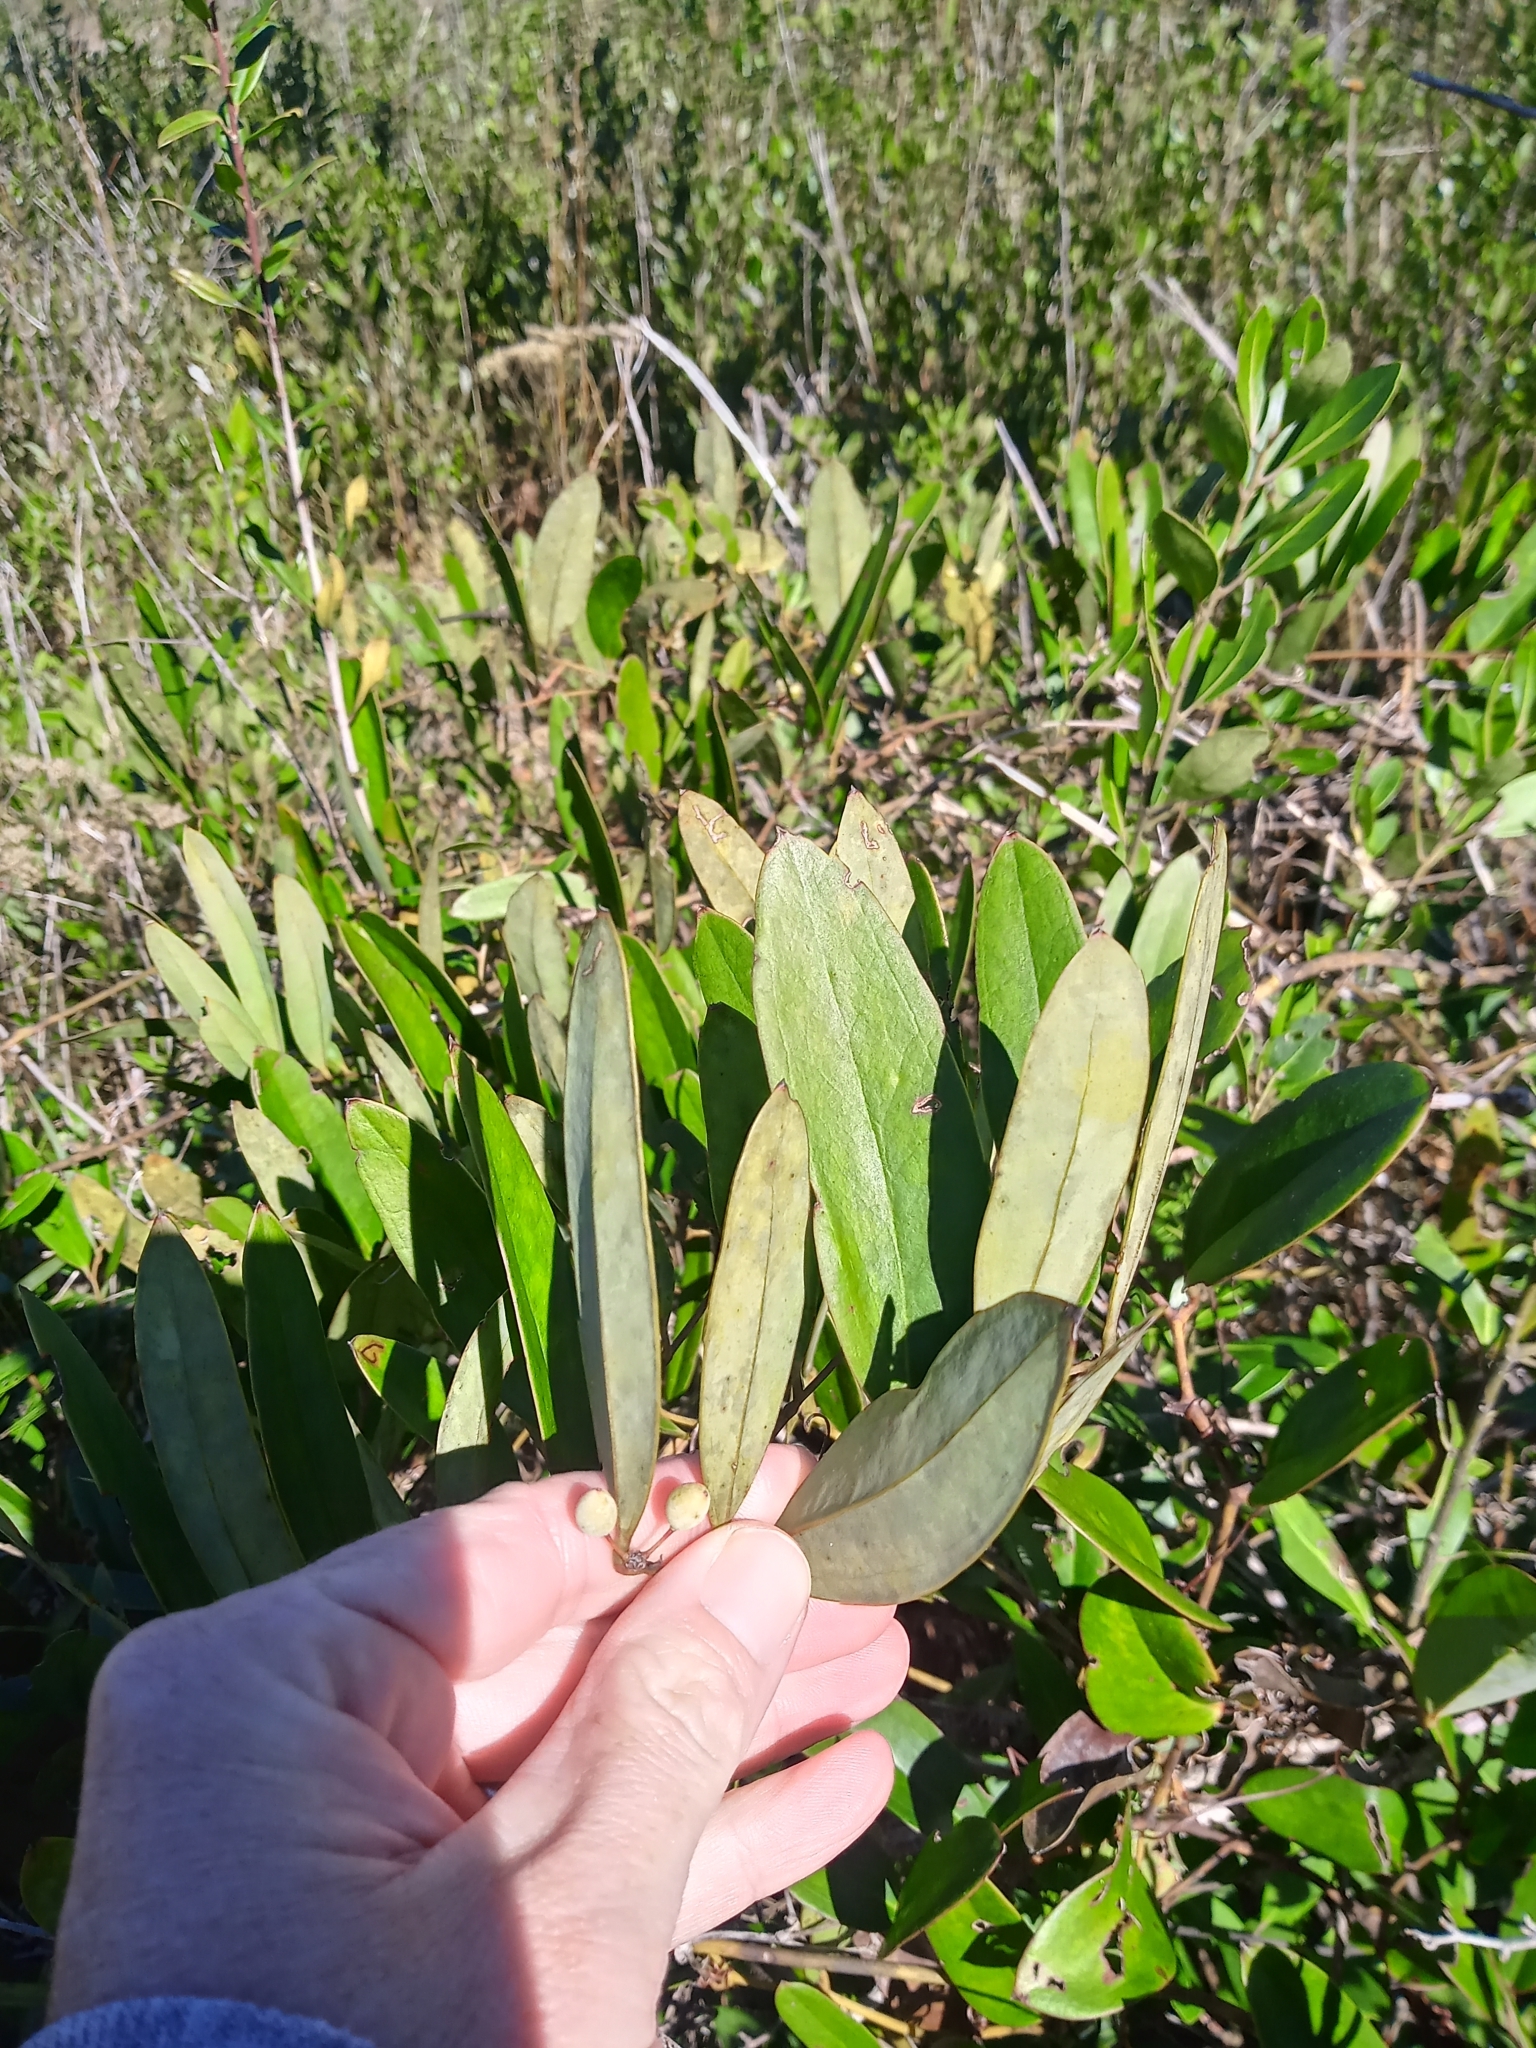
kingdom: Plantae
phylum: Tracheophyta
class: Liliopsida
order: Liliales
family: Smilacaceae
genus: Smilax
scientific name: Smilax laurifolia
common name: Bamboovine
